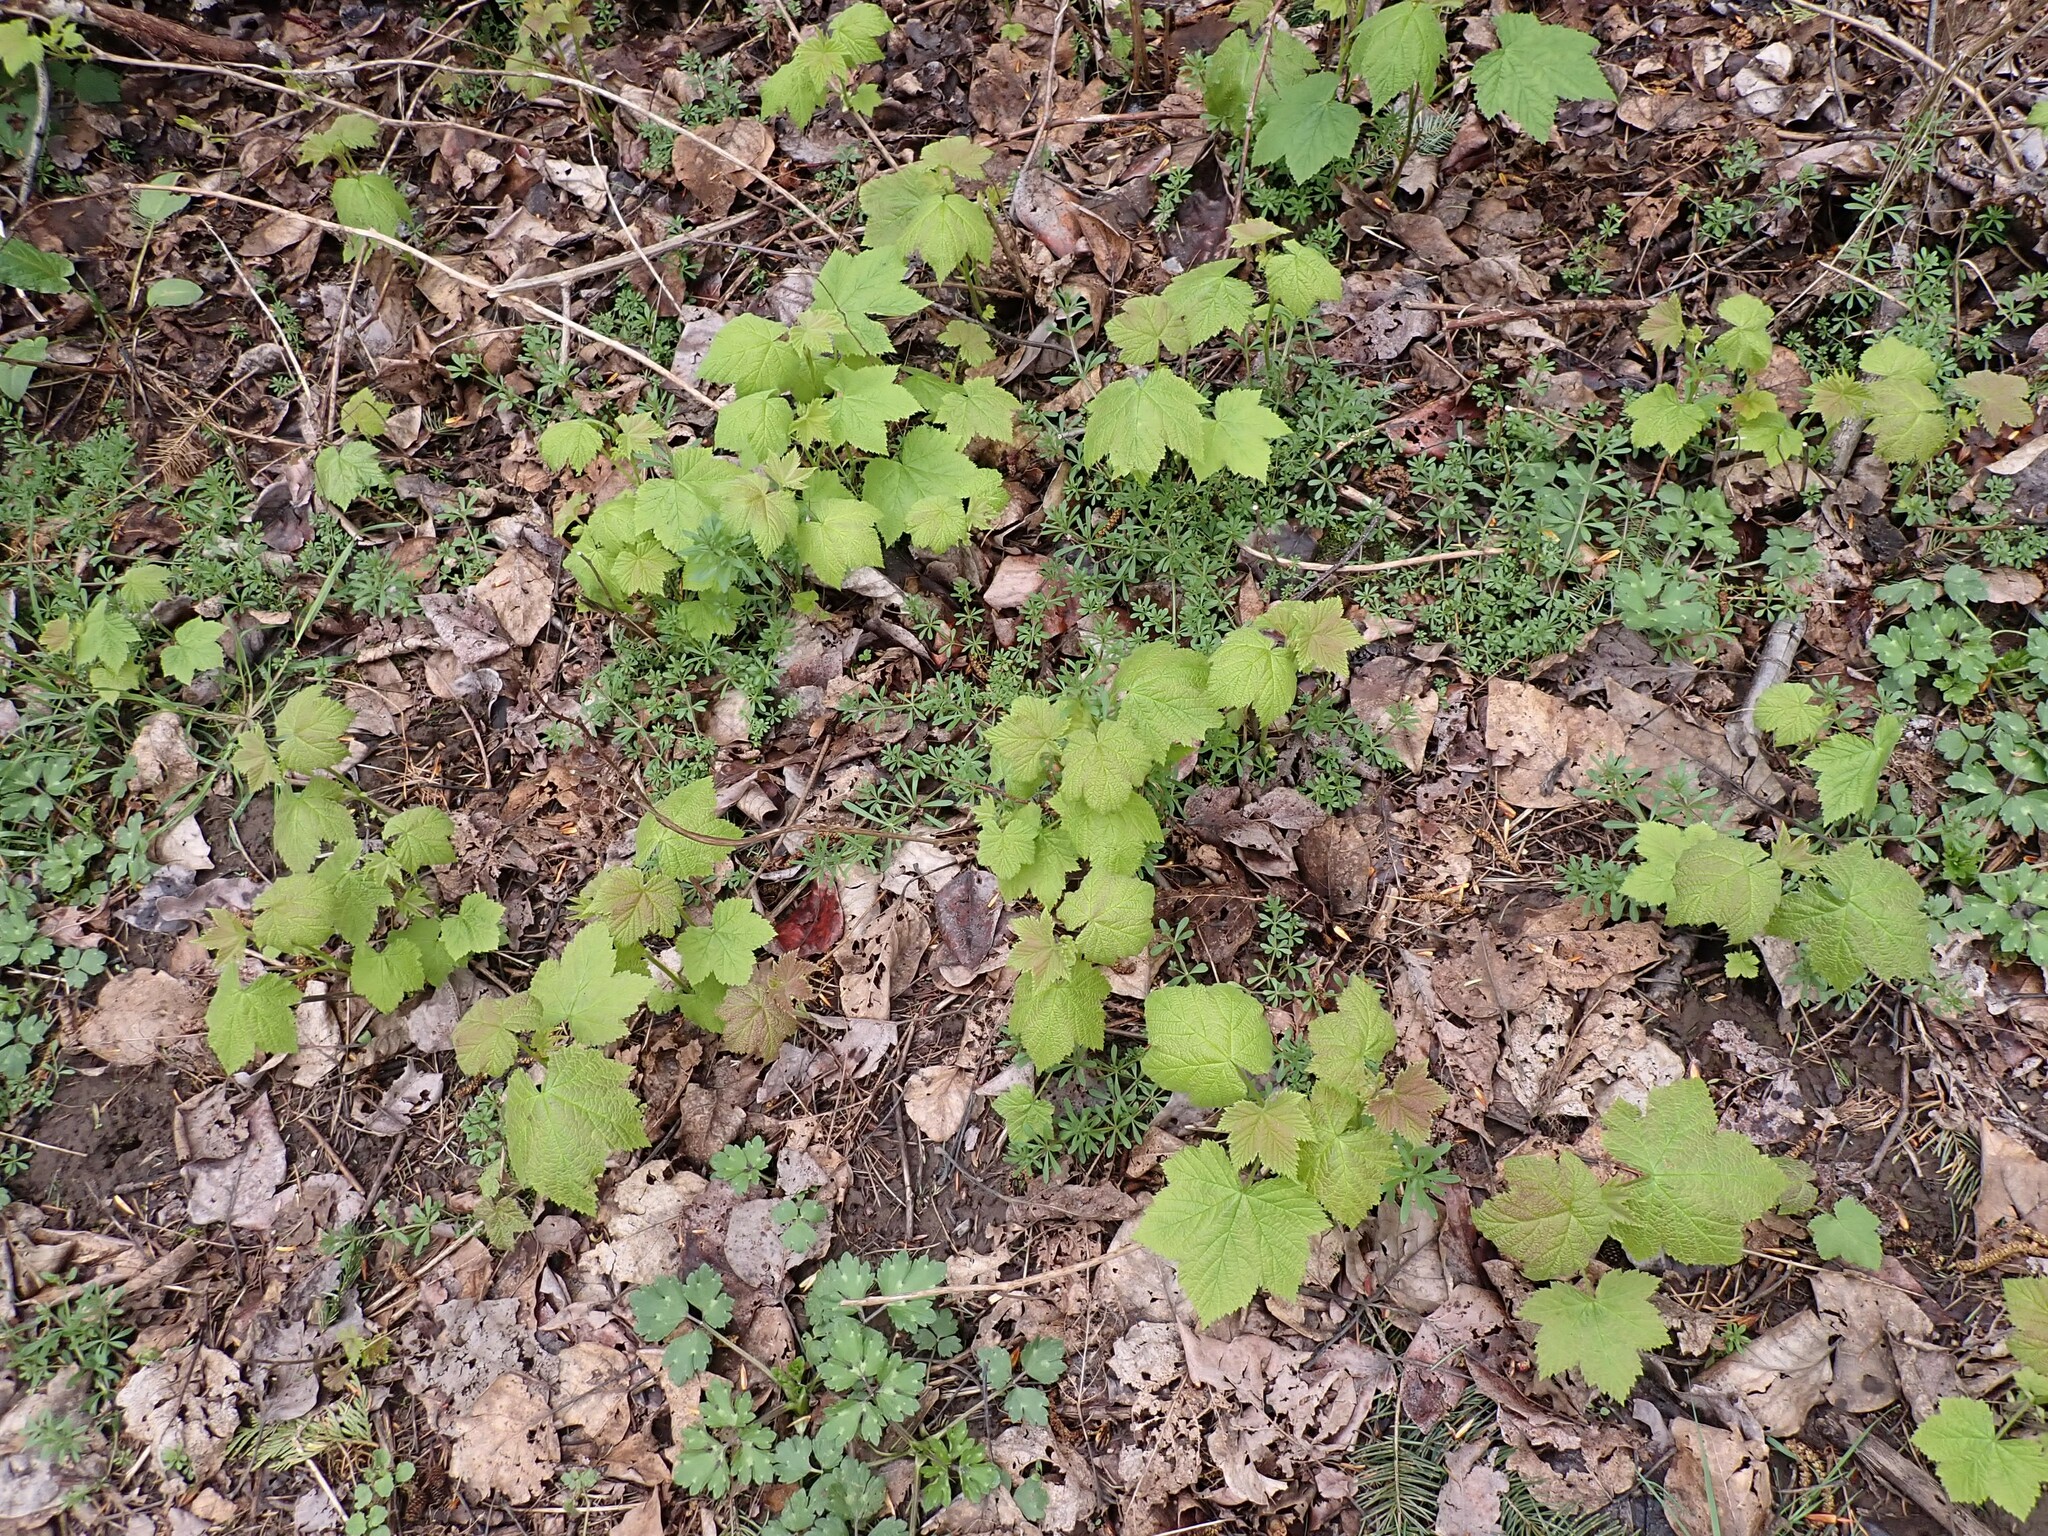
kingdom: Plantae
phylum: Tracheophyta
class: Magnoliopsida
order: Rosales
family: Rosaceae
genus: Rubus
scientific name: Rubus parviflorus
